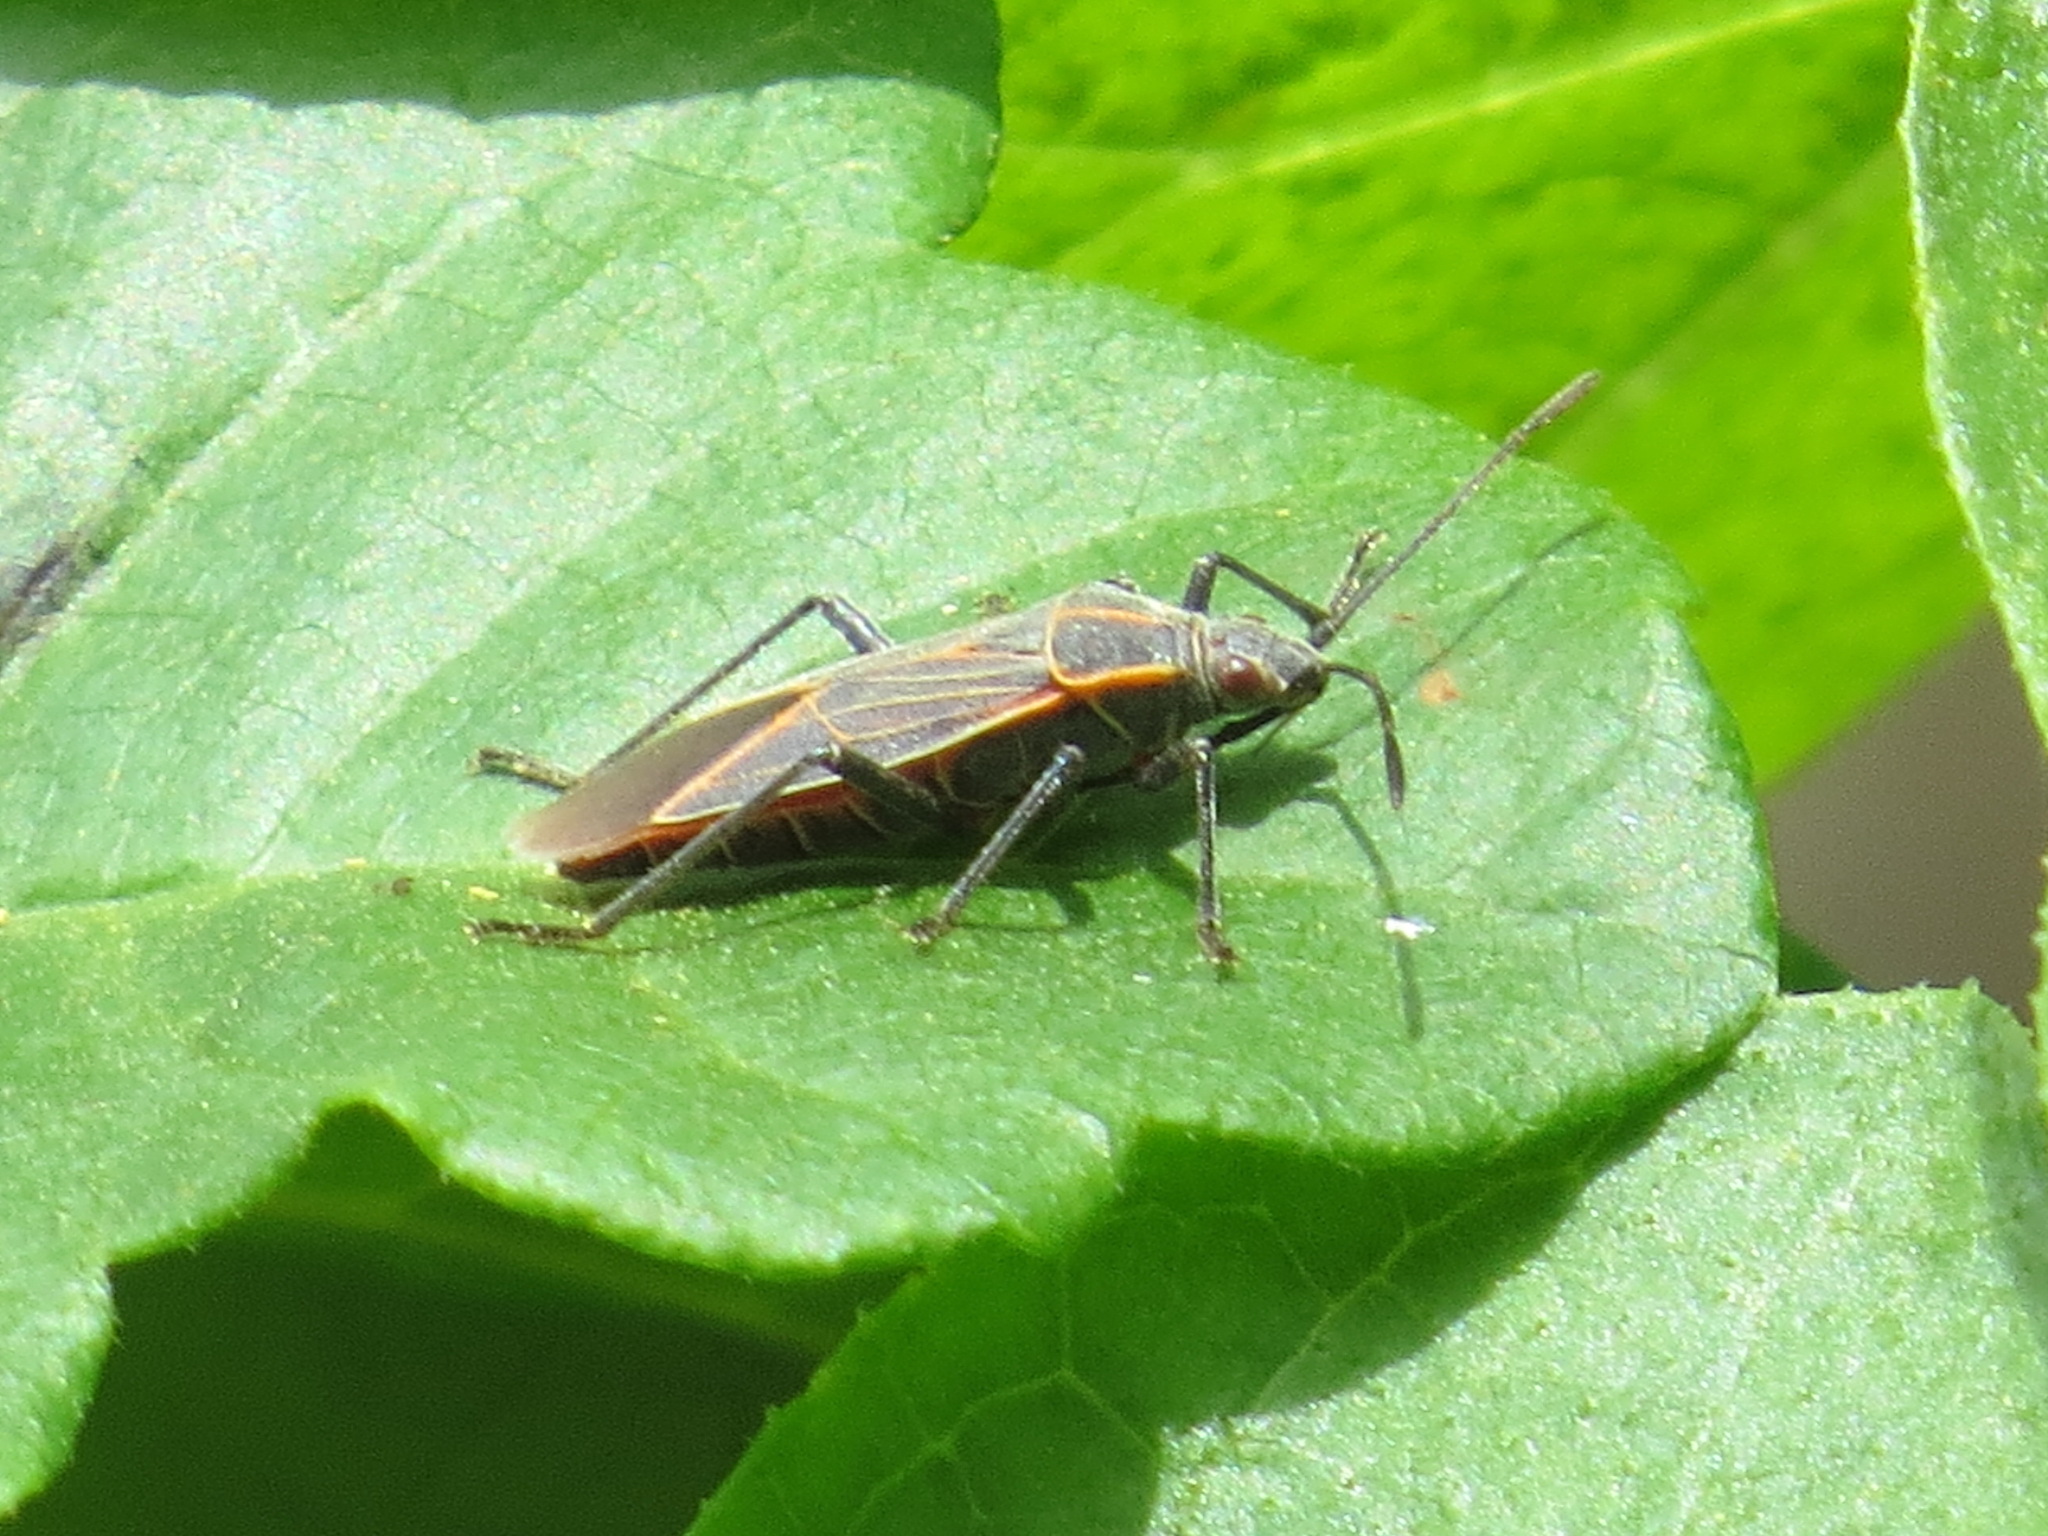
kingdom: Animalia
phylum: Arthropoda
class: Insecta
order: Hemiptera
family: Rhopalidae
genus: Boisea
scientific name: Boisea rubrolineata
